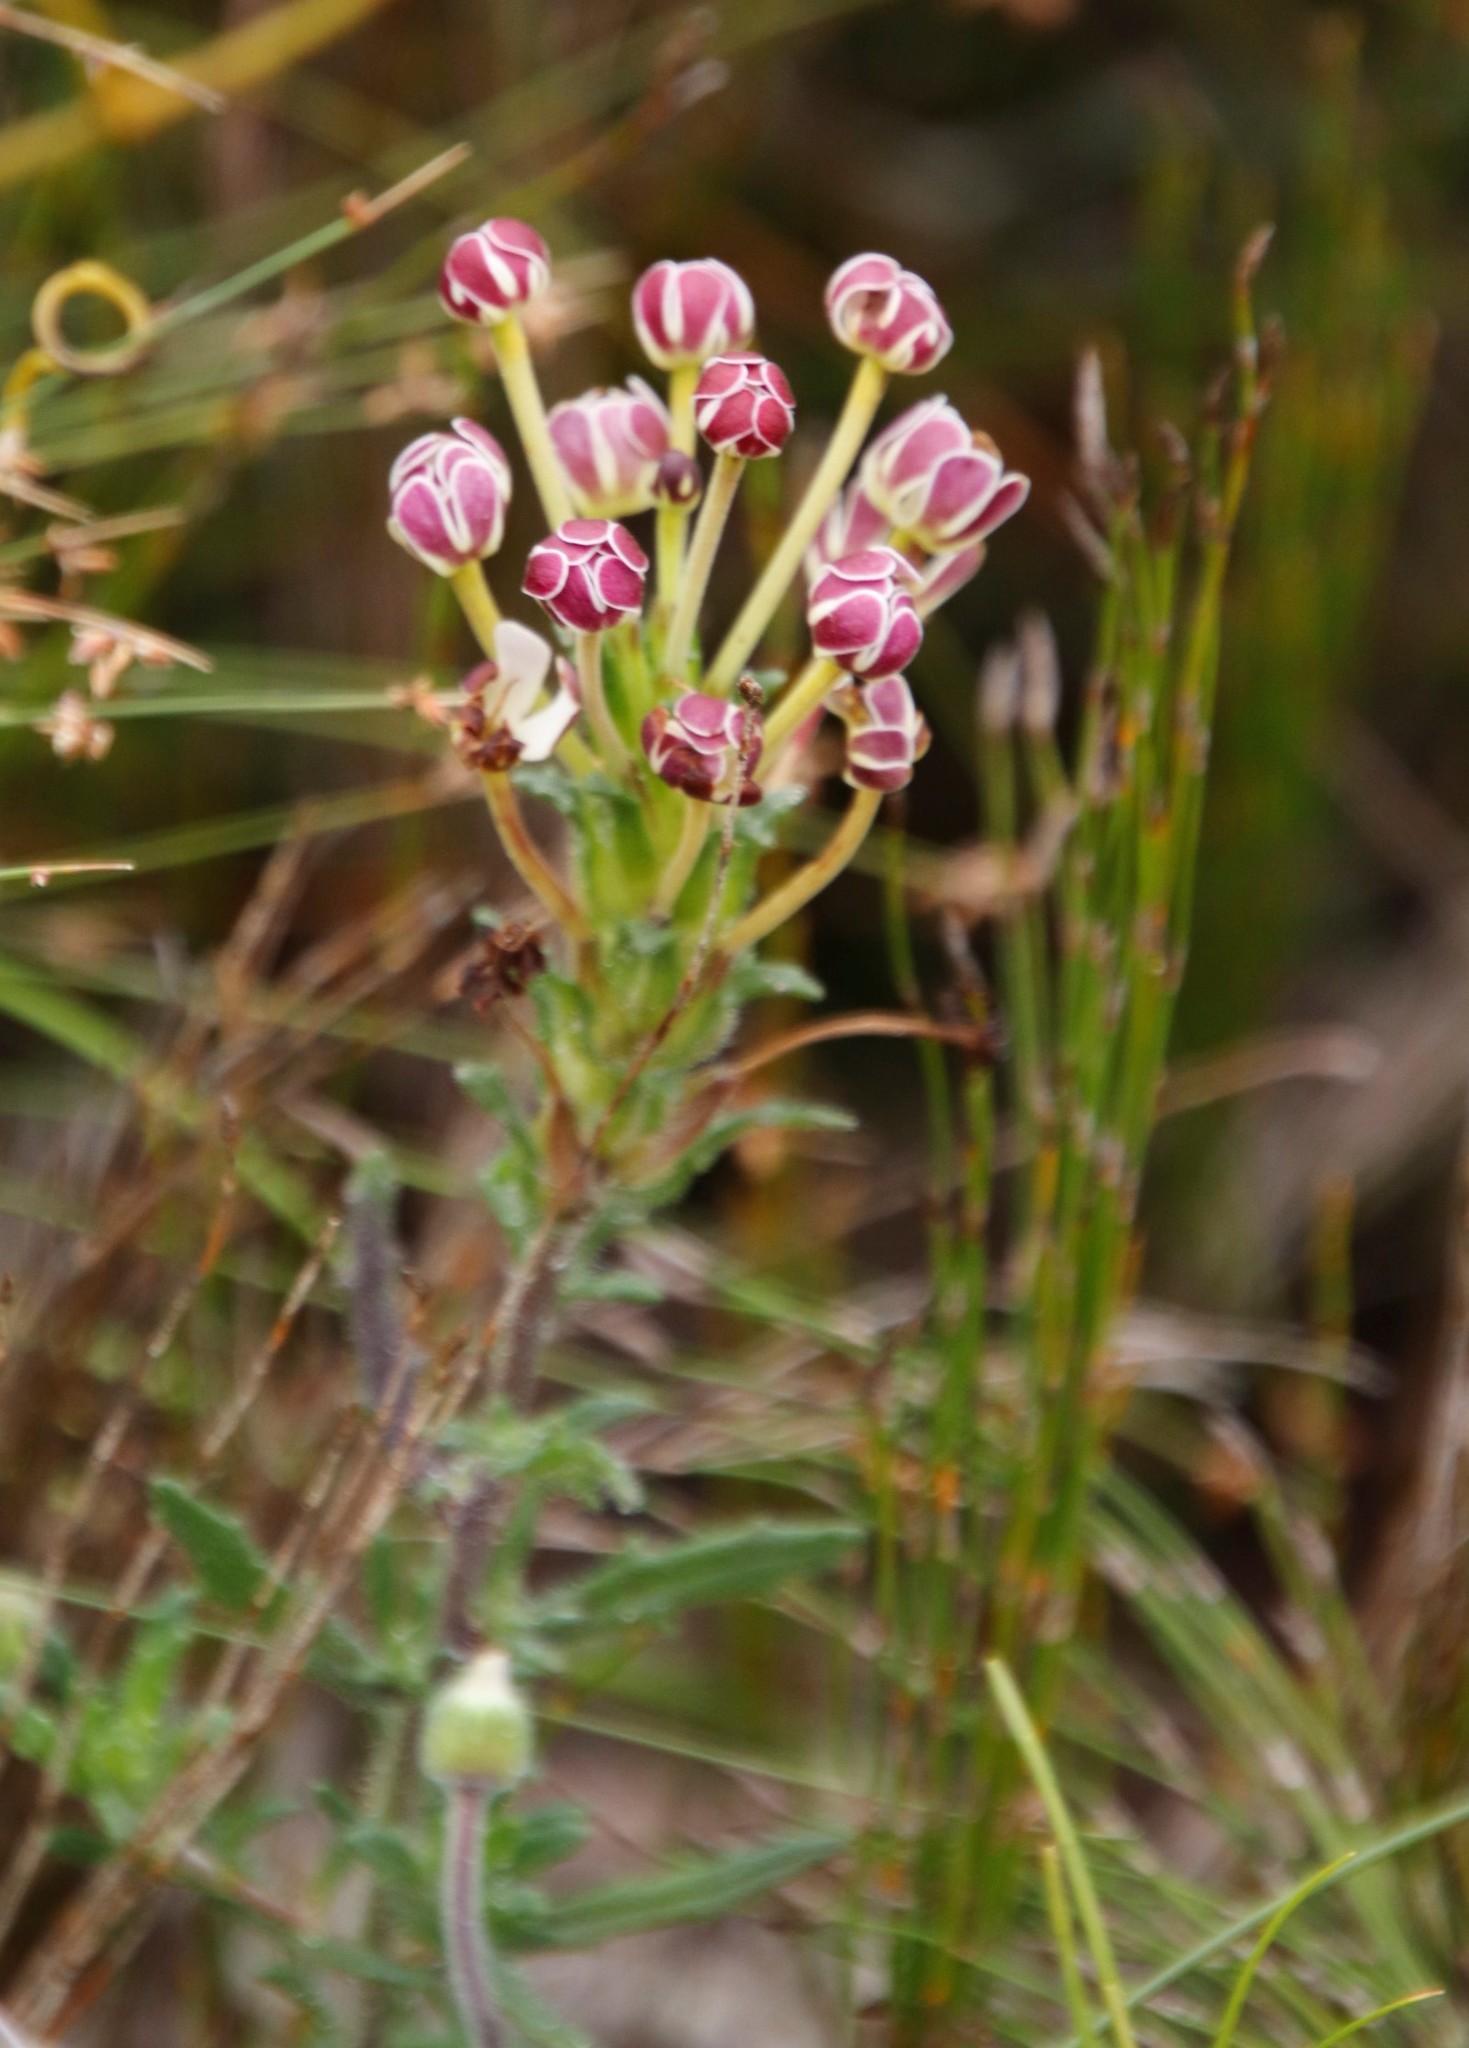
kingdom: Plantae
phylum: Tracheophyta
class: Magnoliopsida
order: Lamiales
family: Scrophulariaceae
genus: Zaluzianskya
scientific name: Zaluzianskya capensis
